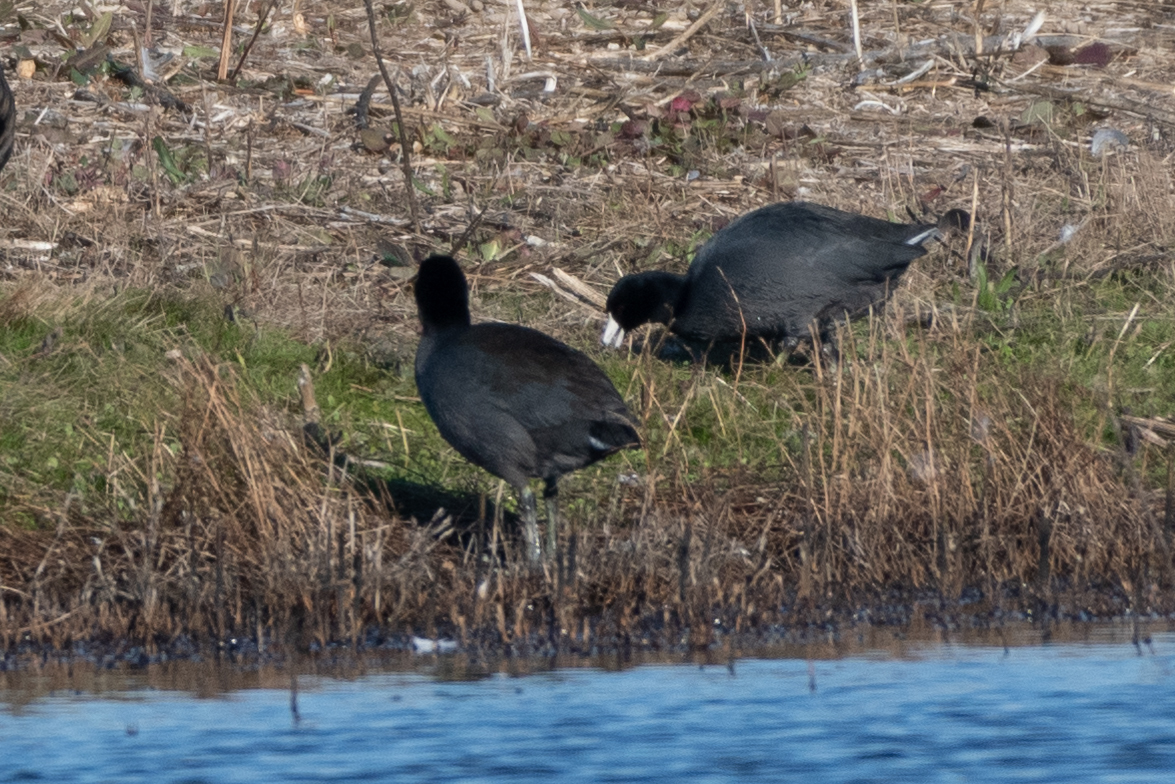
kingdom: Animalia
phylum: Chordata
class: Aves
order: Gruiformes
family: Rallidae
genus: Fulica
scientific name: Fulica americana
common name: American coot
